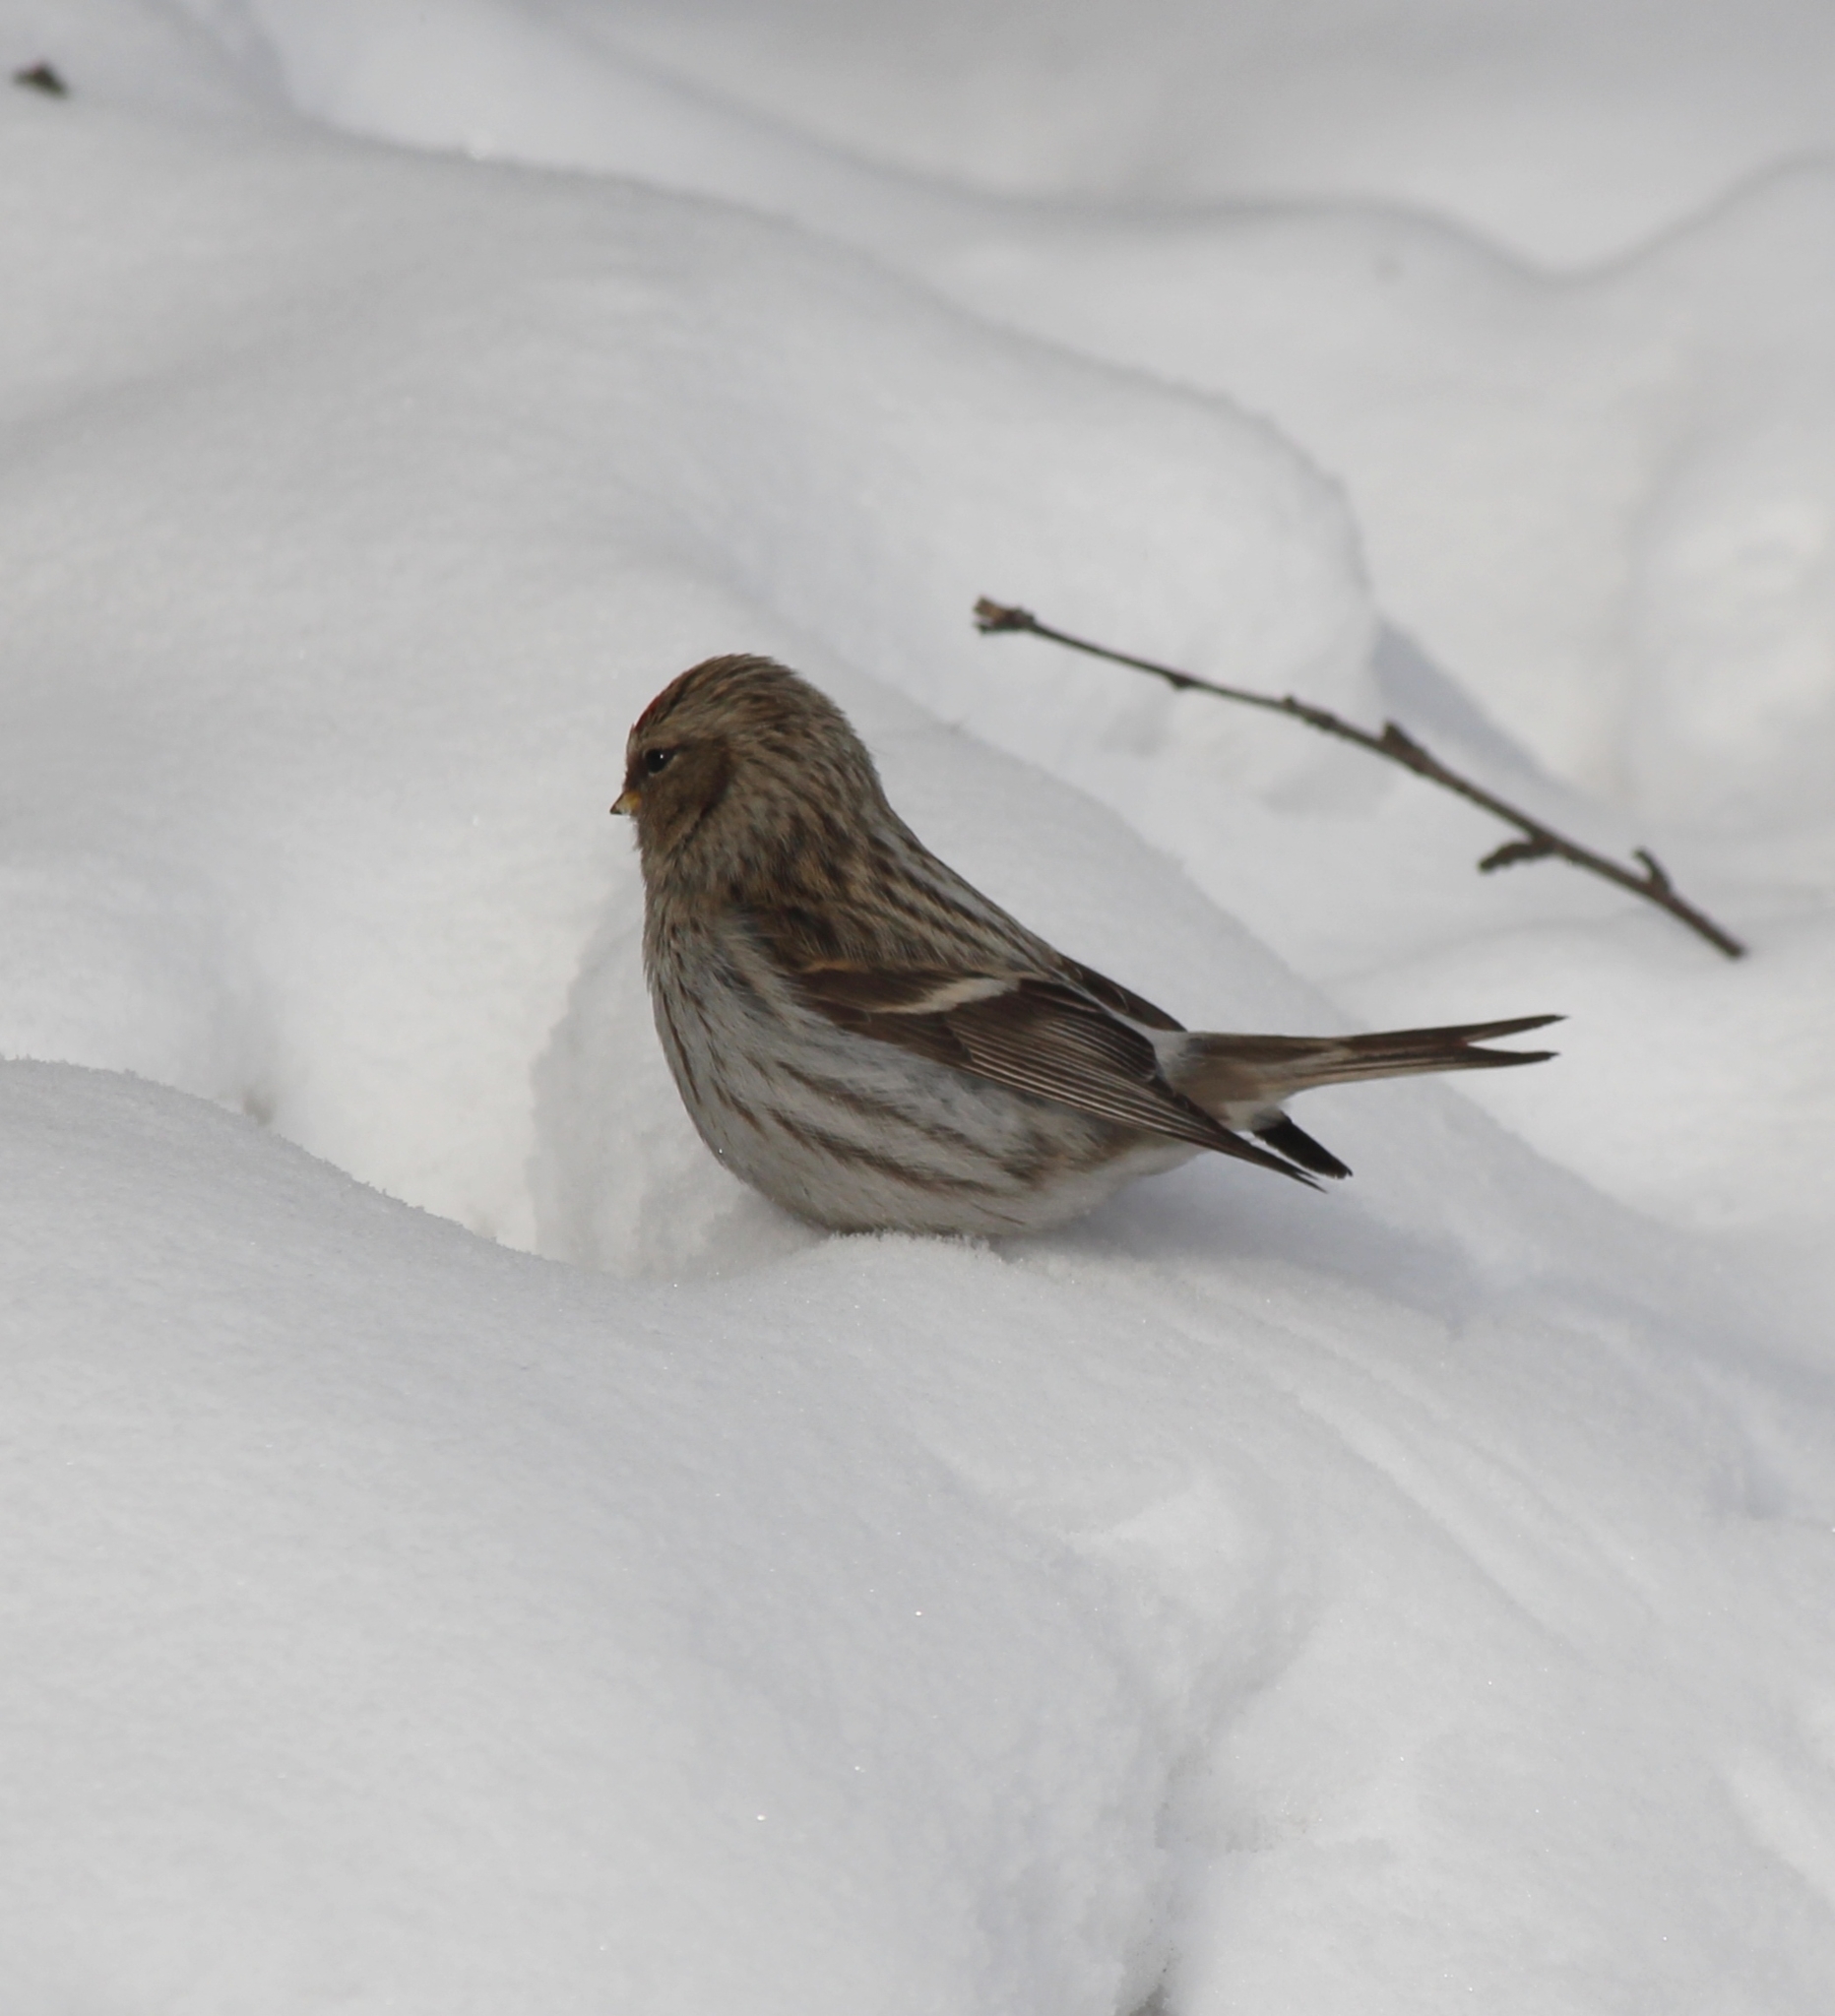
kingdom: Animalia
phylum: Chordata
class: Aves
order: Passeriformes
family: Fringillidae
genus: Acanthis
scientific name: Acanthis flammea
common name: Common redpoll
